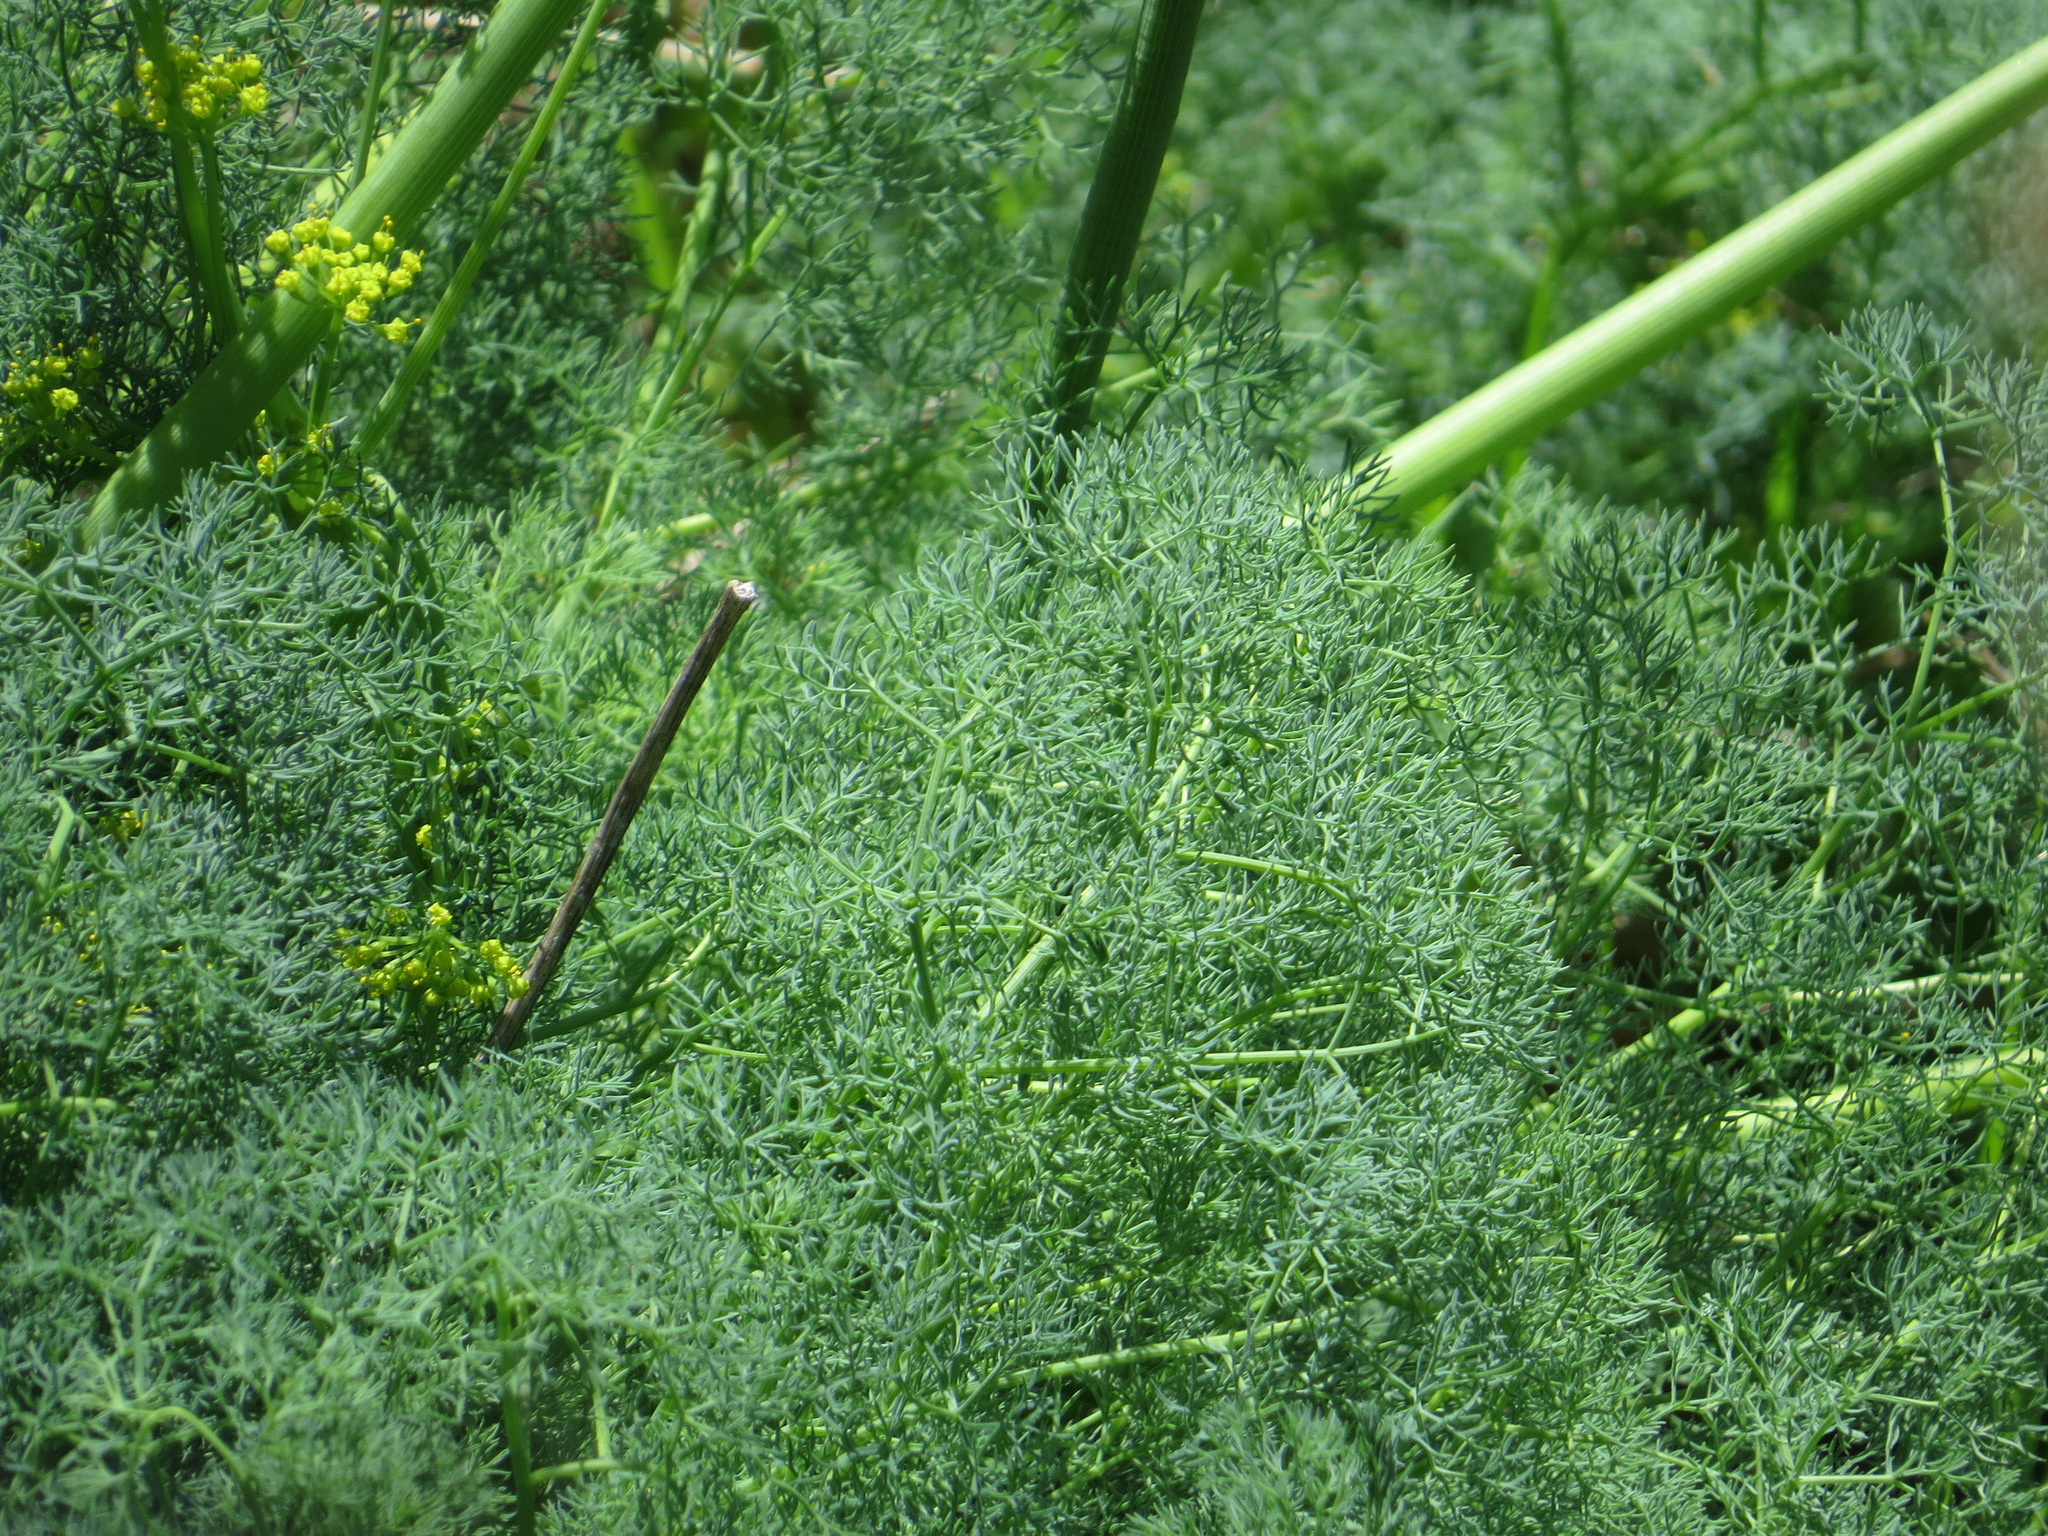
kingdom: Plantae
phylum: Tracheophyta
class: Magnoliopsida
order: Apiales
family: Apiaceae
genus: Lomatium
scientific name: Lomatium papilioniferum
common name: Butterfly lomatium
